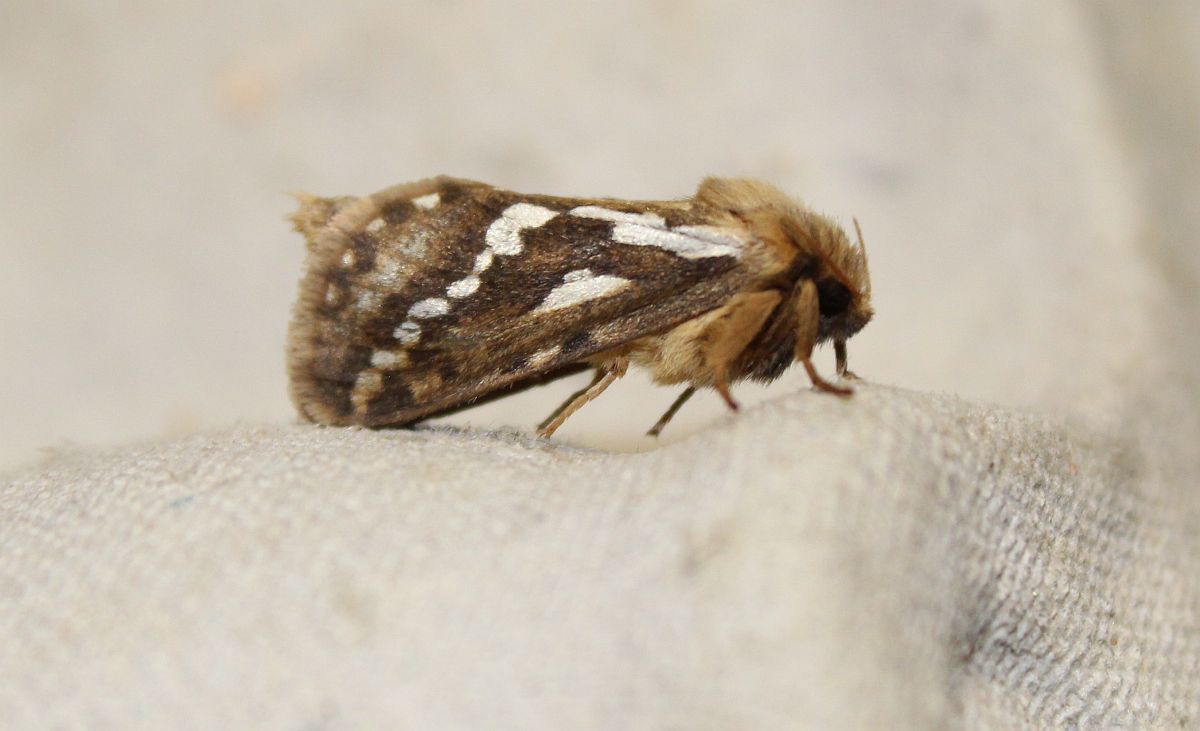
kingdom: Animalia
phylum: Arthropoda
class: Insecta
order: Lepidoptera
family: Hepialidae
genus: Korscheltellus
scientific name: Korscheltellus lupulina
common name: Common swift
